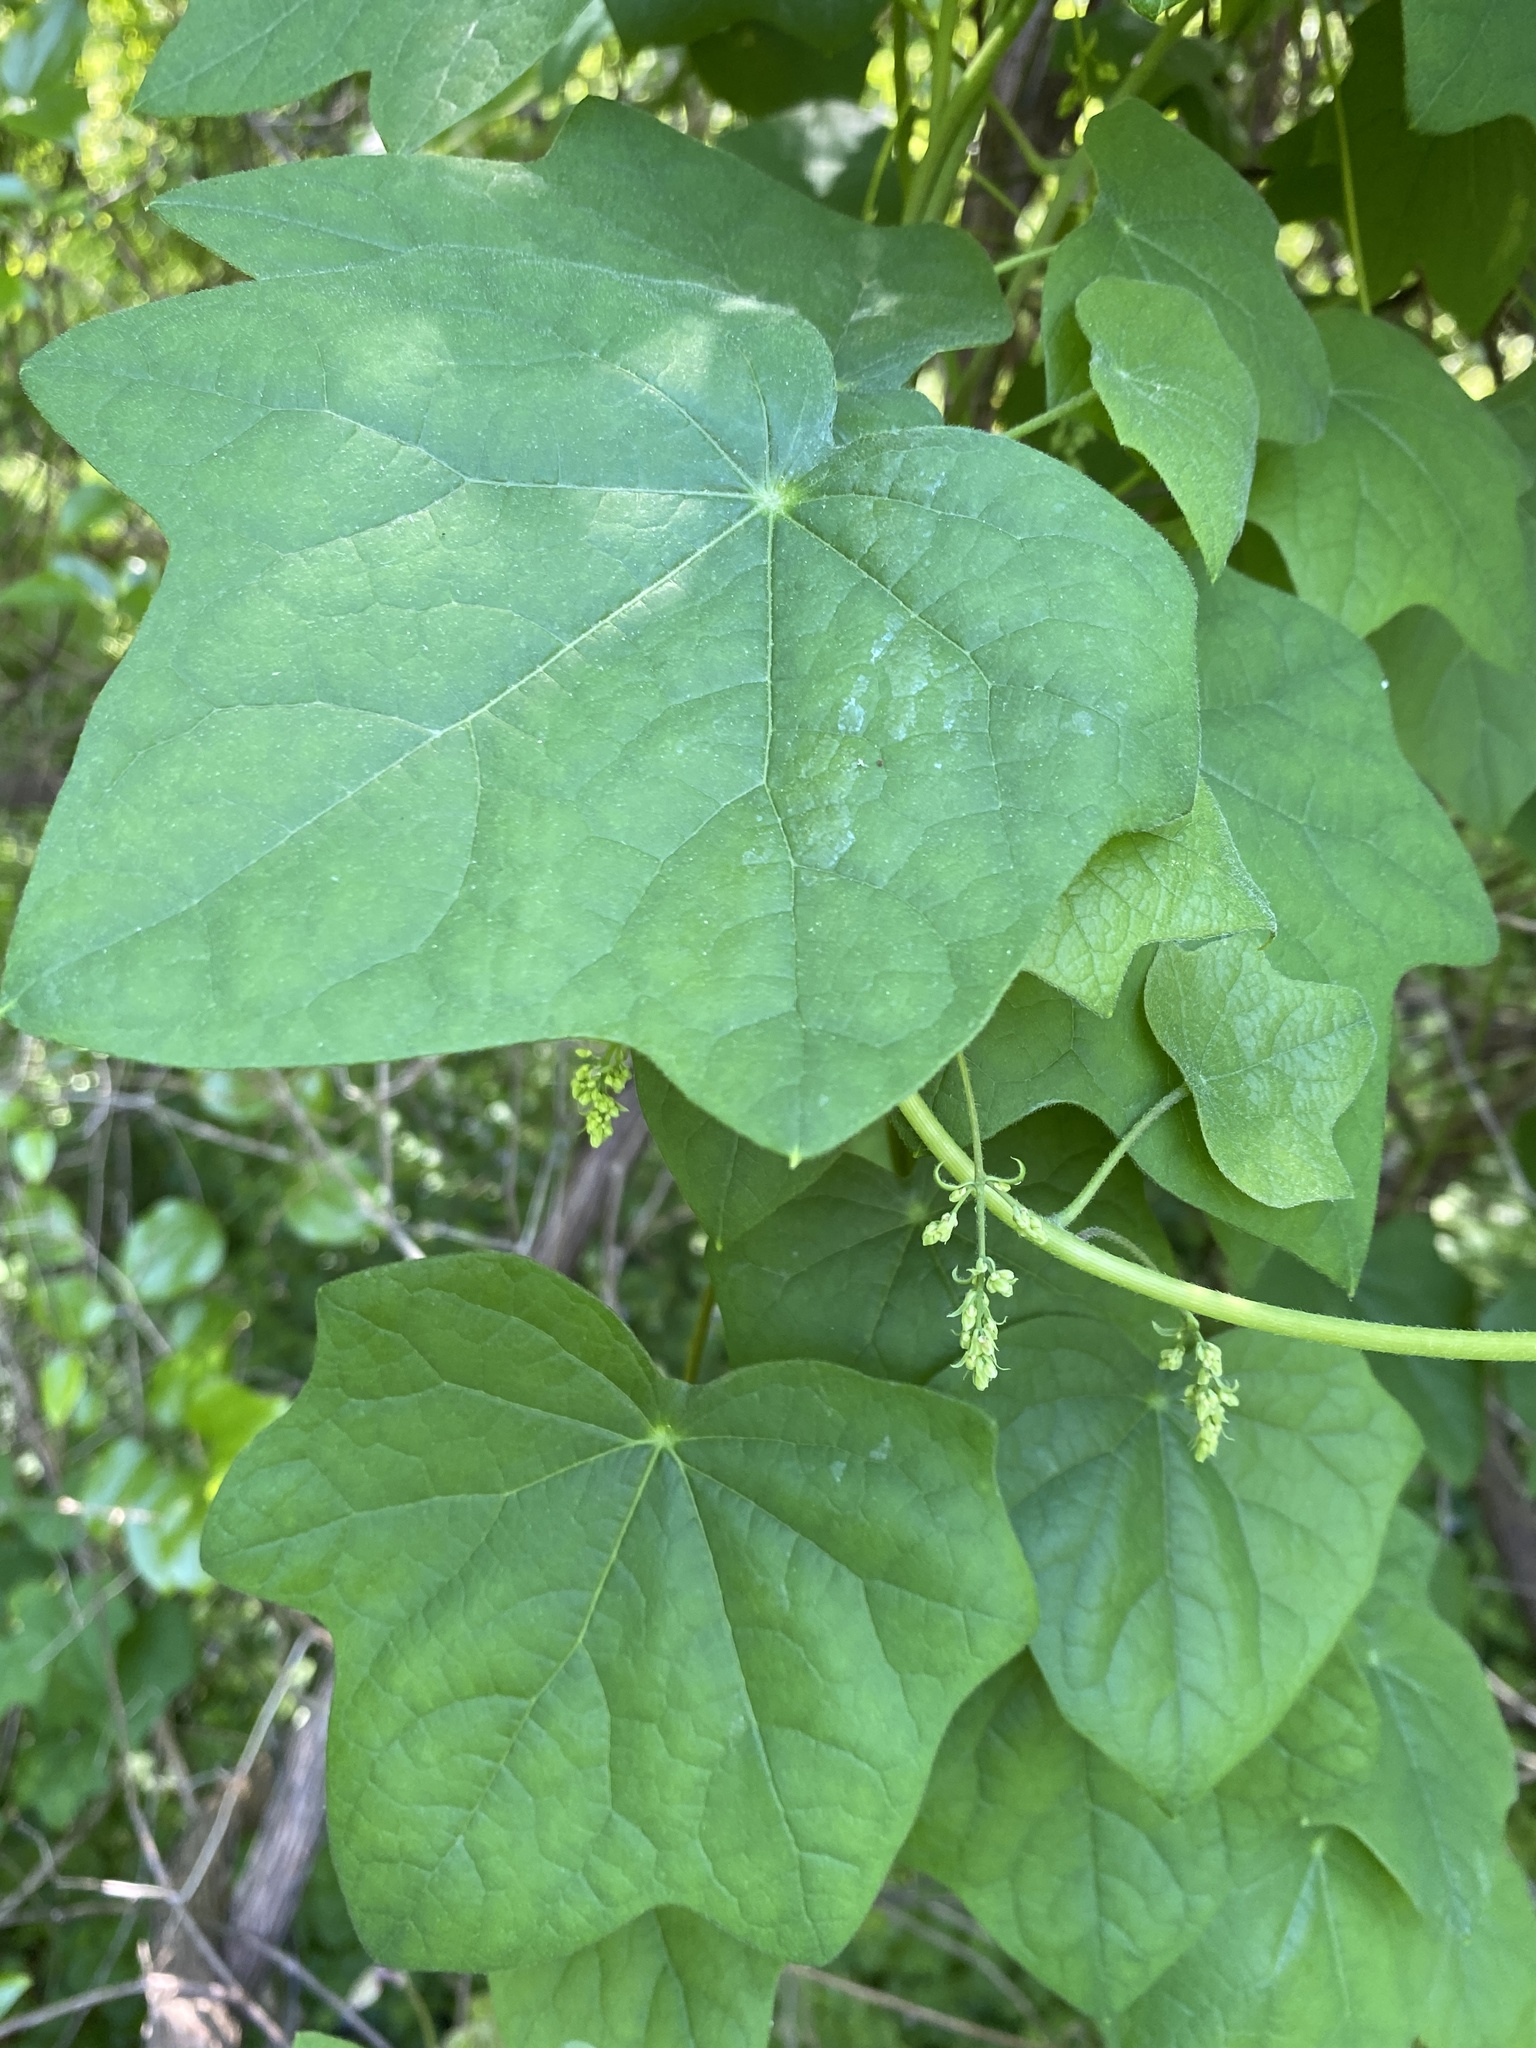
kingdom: Plantae
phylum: Tracheophyta
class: Magnoliopsida
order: Ranunculales
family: Menispermaceae
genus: Menispermum
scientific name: Menispermum canadense
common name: Moonseed
